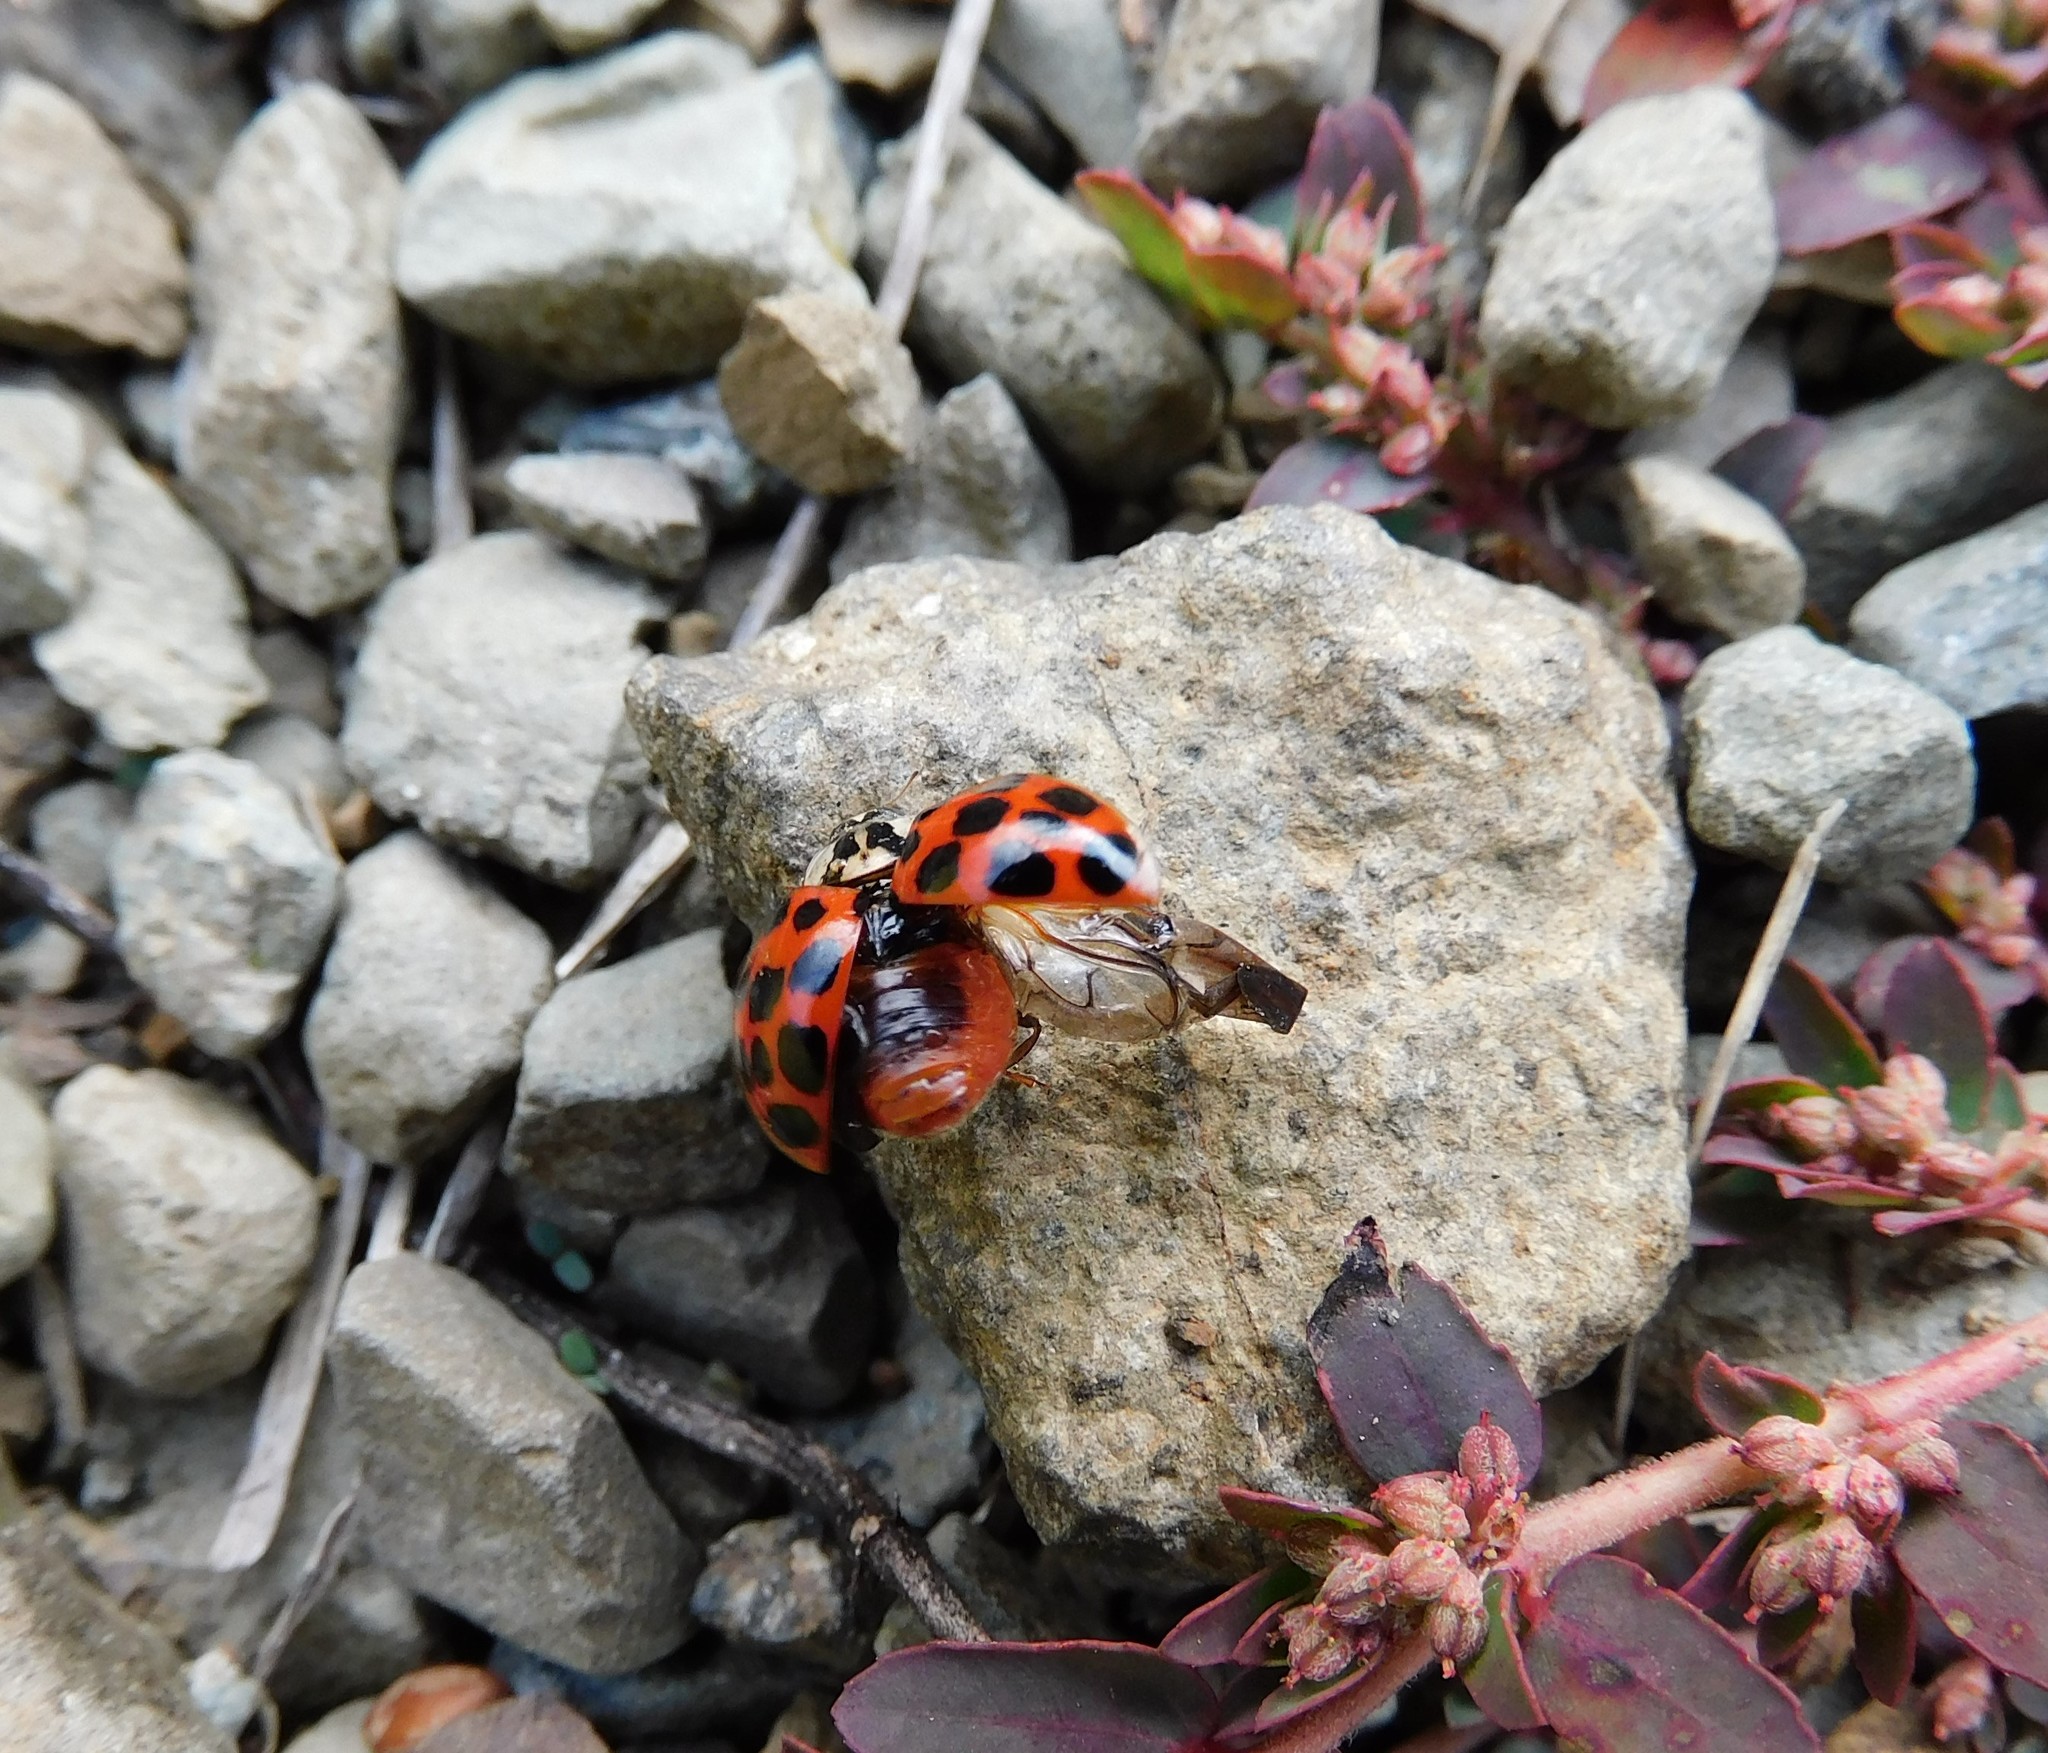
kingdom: Animalia
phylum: Arthropoda
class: Insecta
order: Coleoptera
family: Coccinellidae
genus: Harmonia
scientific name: Harmonia axyridis
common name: Harlequin ladybird
